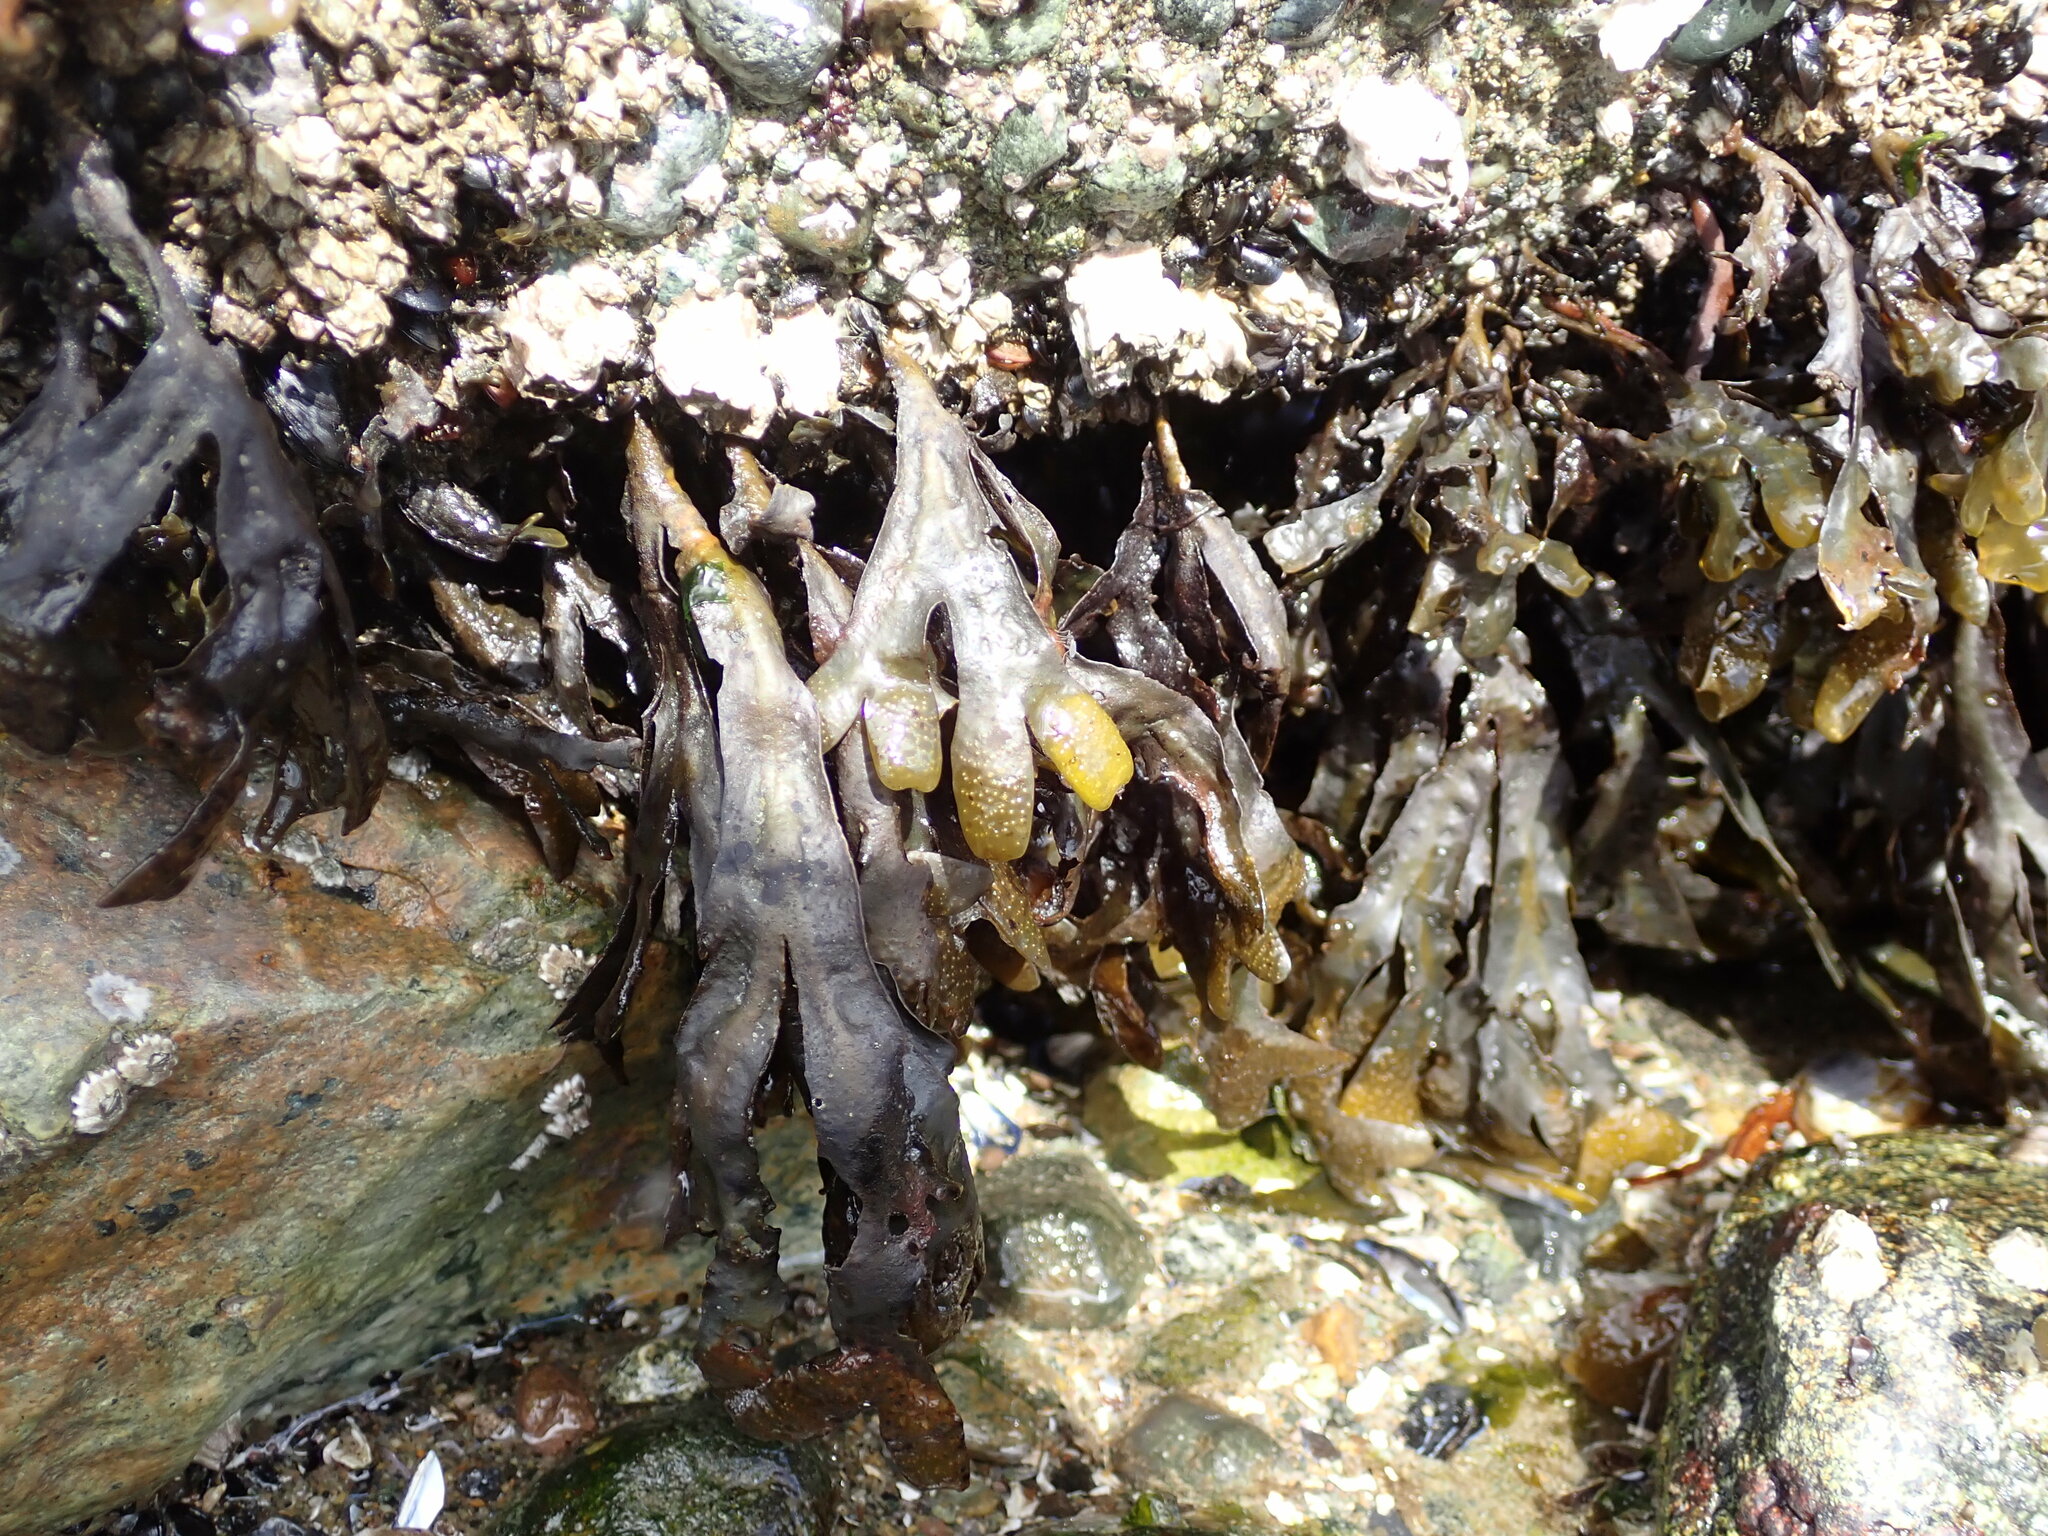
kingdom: Chromista
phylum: Ochrophyta
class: Phaeophyceae
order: Fucales
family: Fucaceae
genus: Fucus
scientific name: Fucus distichus
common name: Rockweed
